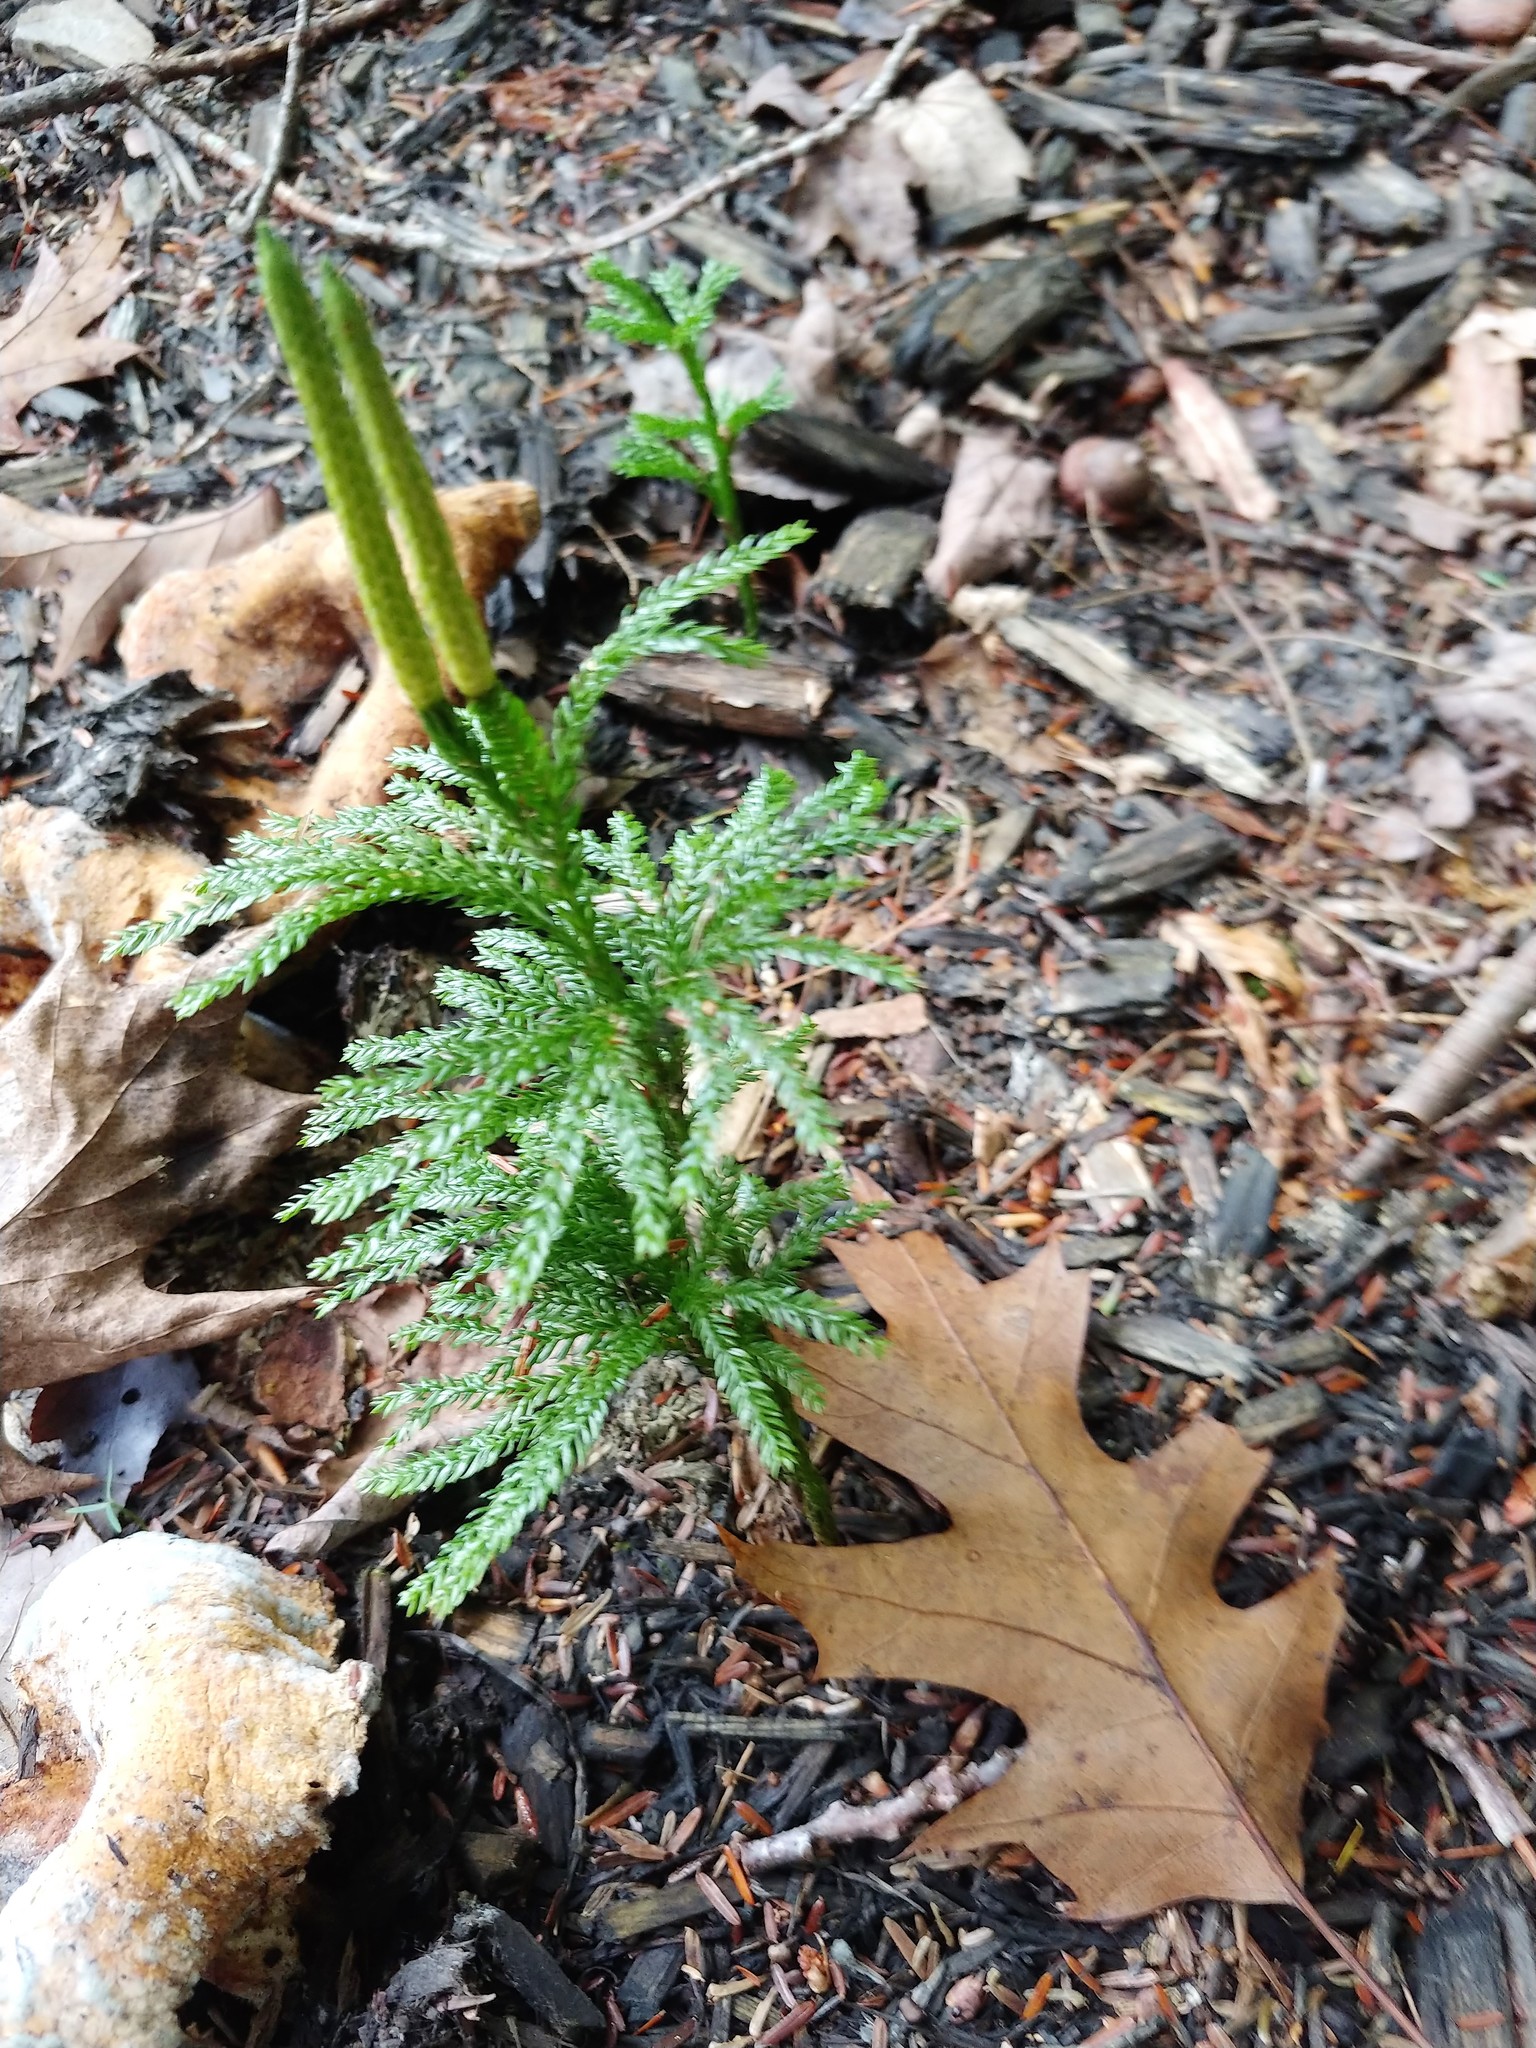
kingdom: Plantae
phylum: Tracheophyta
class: Lycopodiopsida
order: Lycopodiales
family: Lycopodiaceae
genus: Dendrolycopodium
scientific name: Dendrolycopodium obscurum
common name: Common ground-pine
